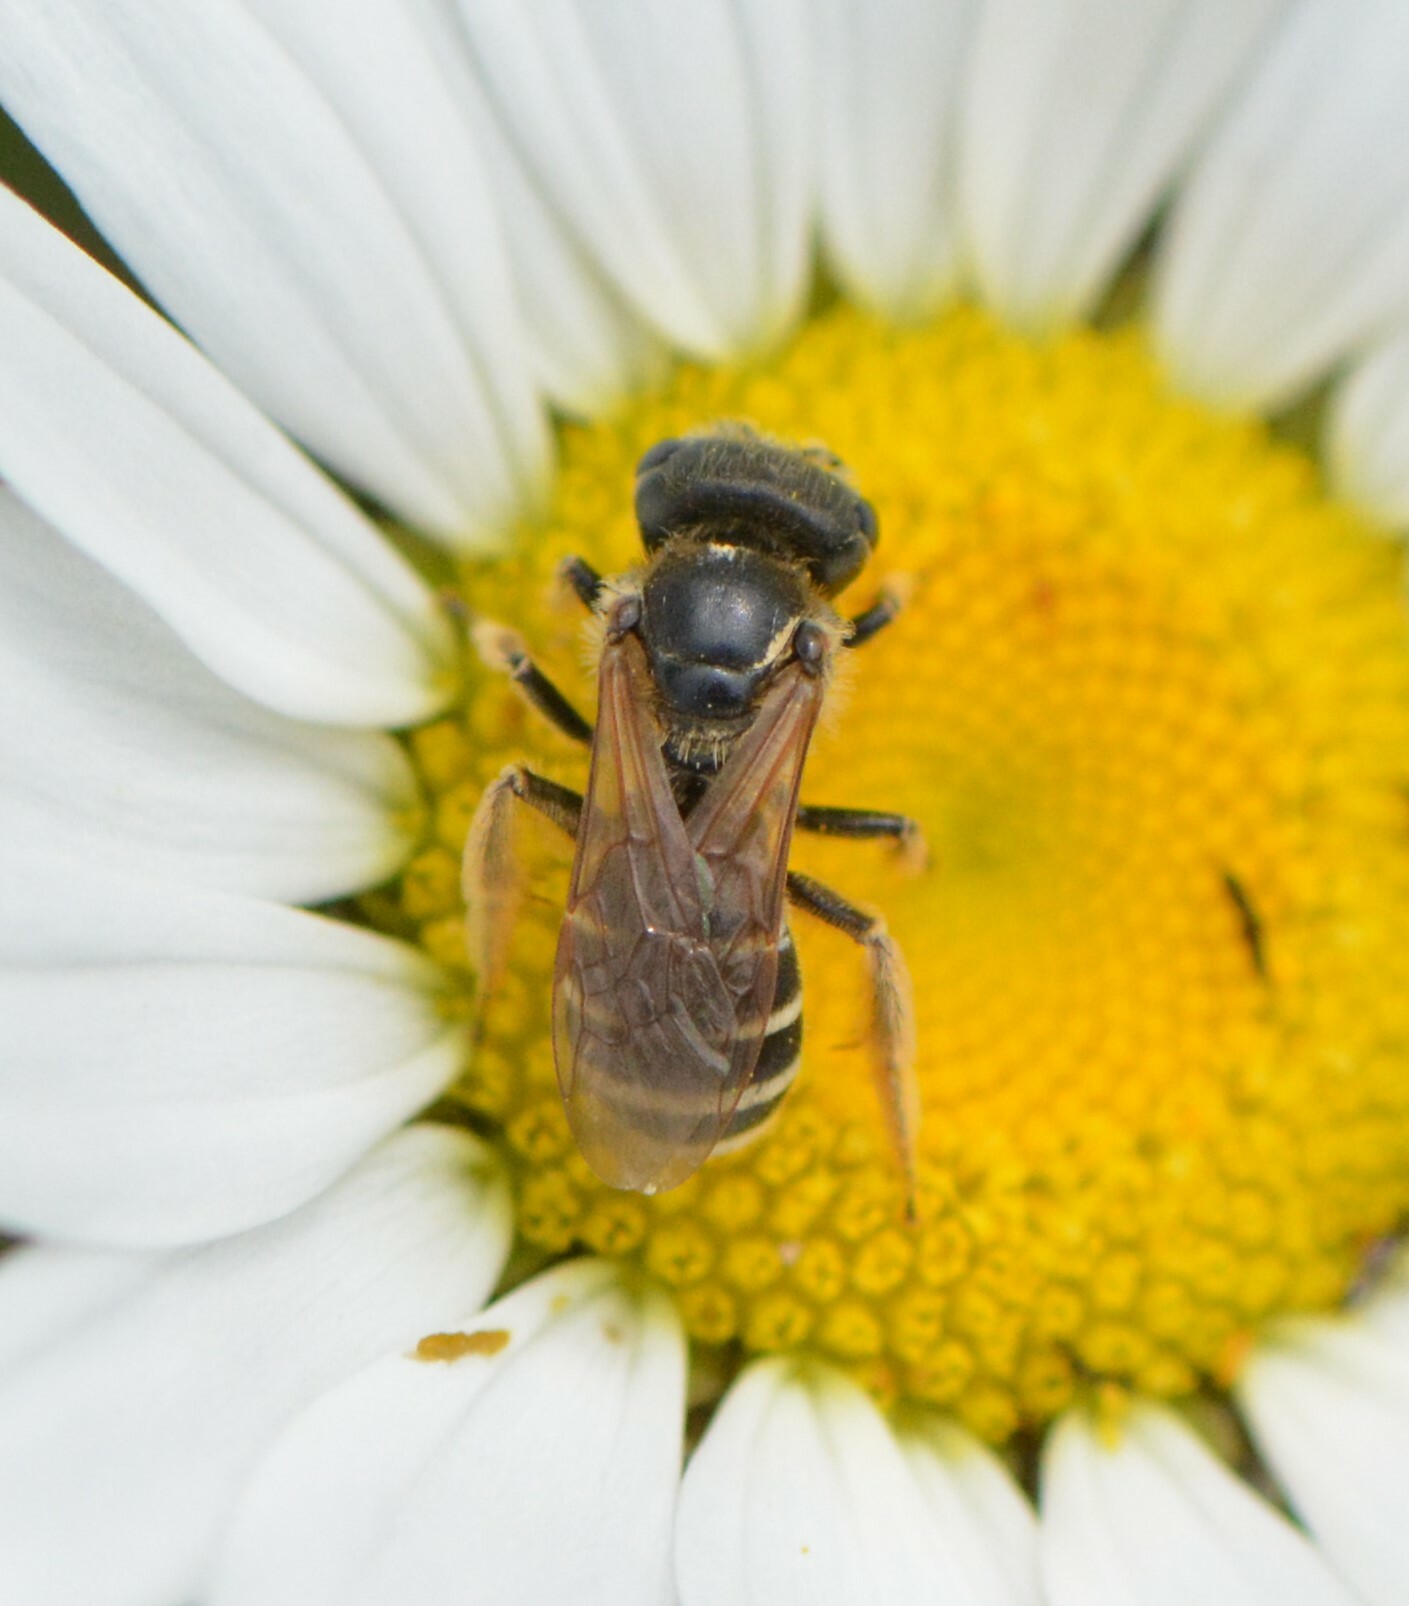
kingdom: Animalia
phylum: Arthropoda
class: Insecta
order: Hymenoptera
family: Halictidae
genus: Halictus
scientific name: Halictus ligatus
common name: Ligated furrow bee
